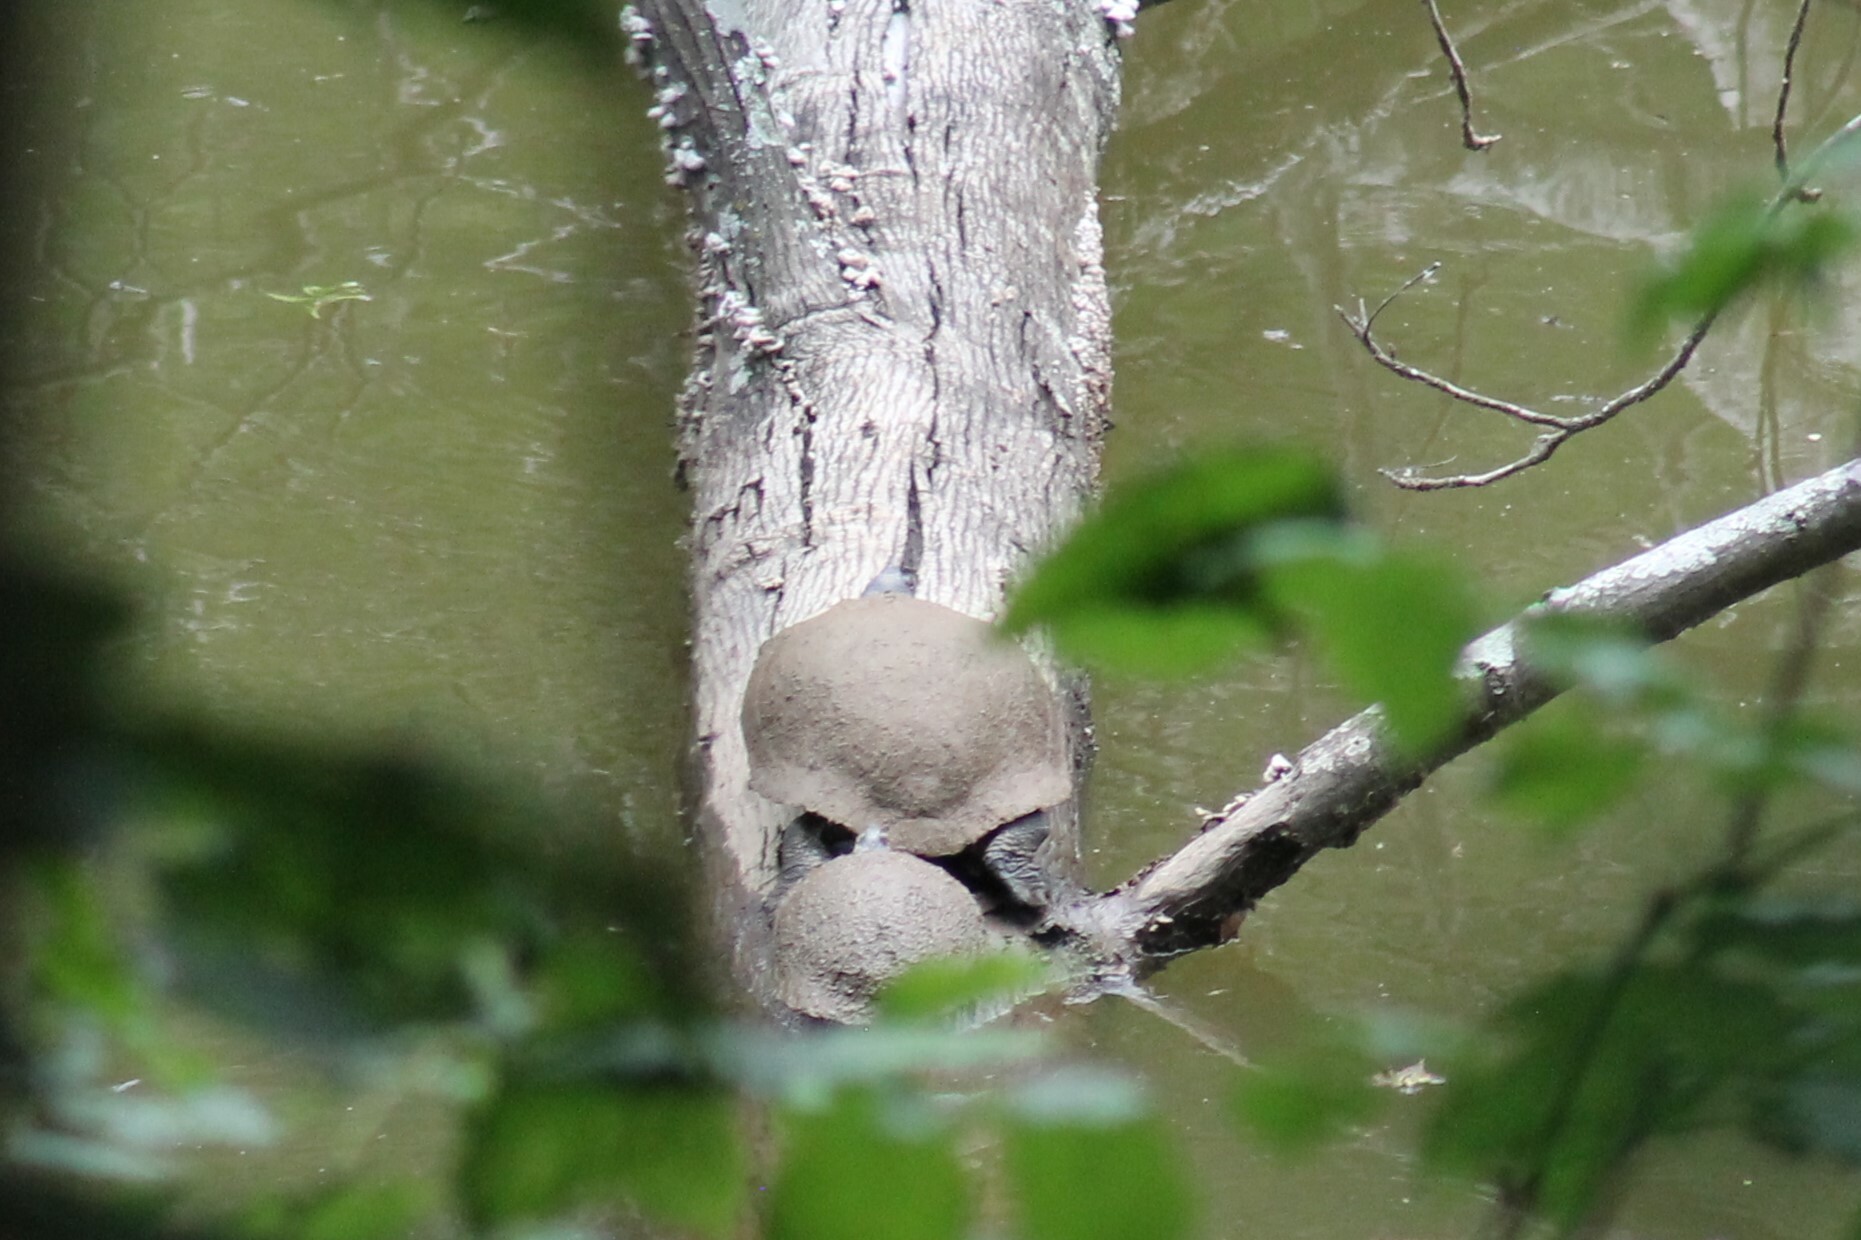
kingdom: Animalia
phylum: Chordata
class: Testudines
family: Emydidae
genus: Trachemys
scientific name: Trachemys scripta
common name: Slider
